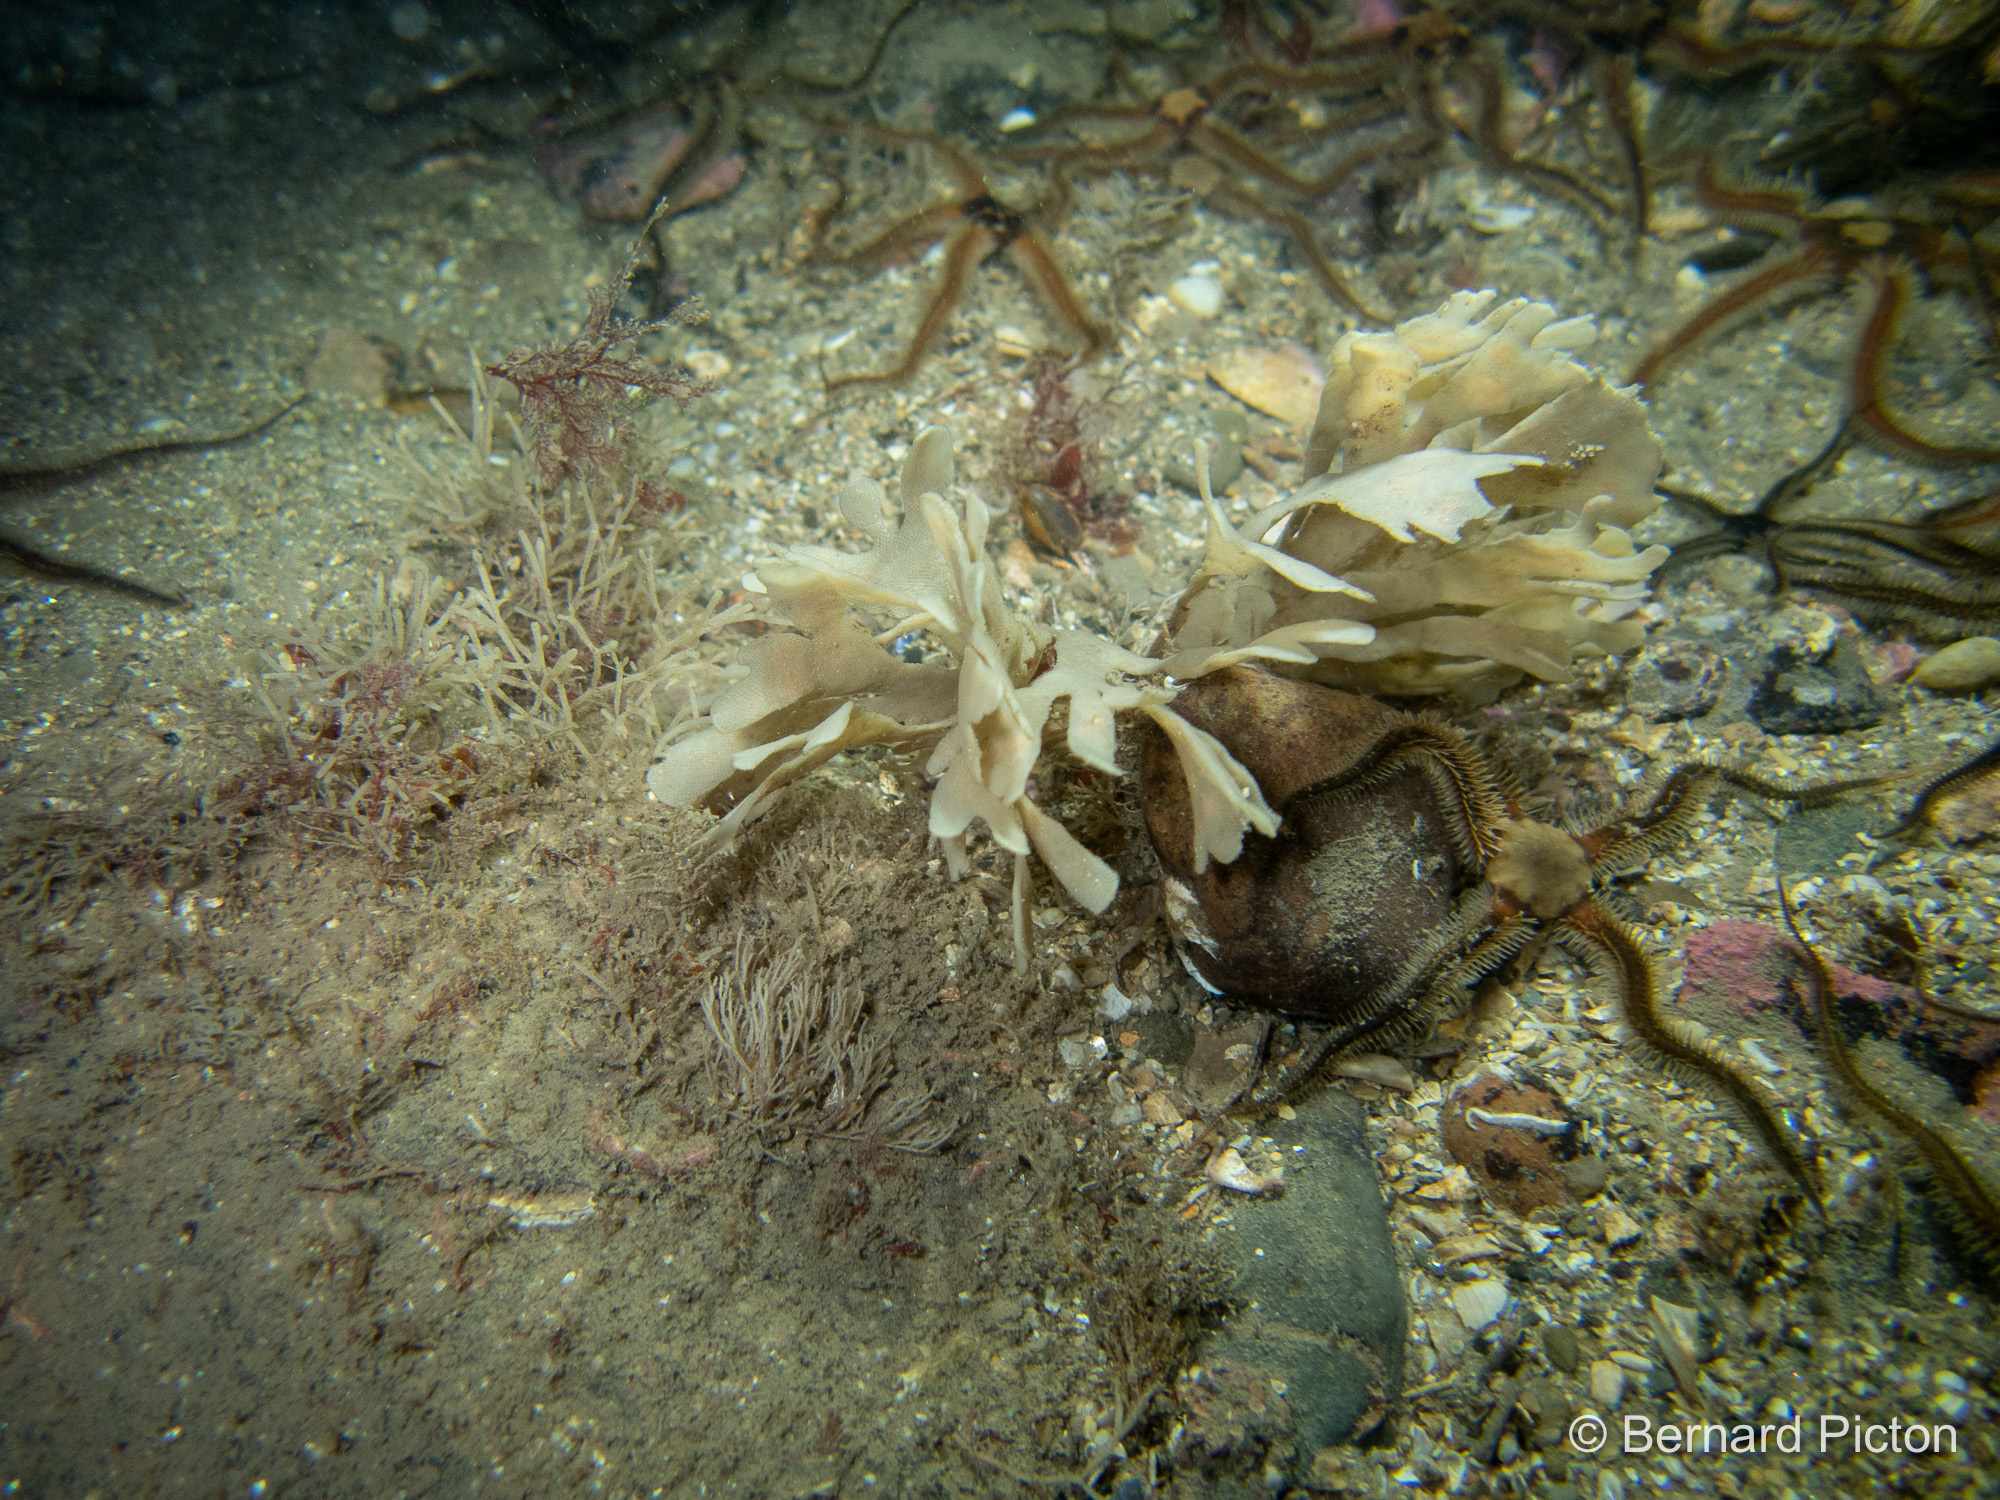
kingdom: Animalia
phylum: Bryozoa
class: Gymnolaemata
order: Cheilostomatida
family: Flustridae
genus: Flustra
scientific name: Flustra foliacea
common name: Hornwrack
